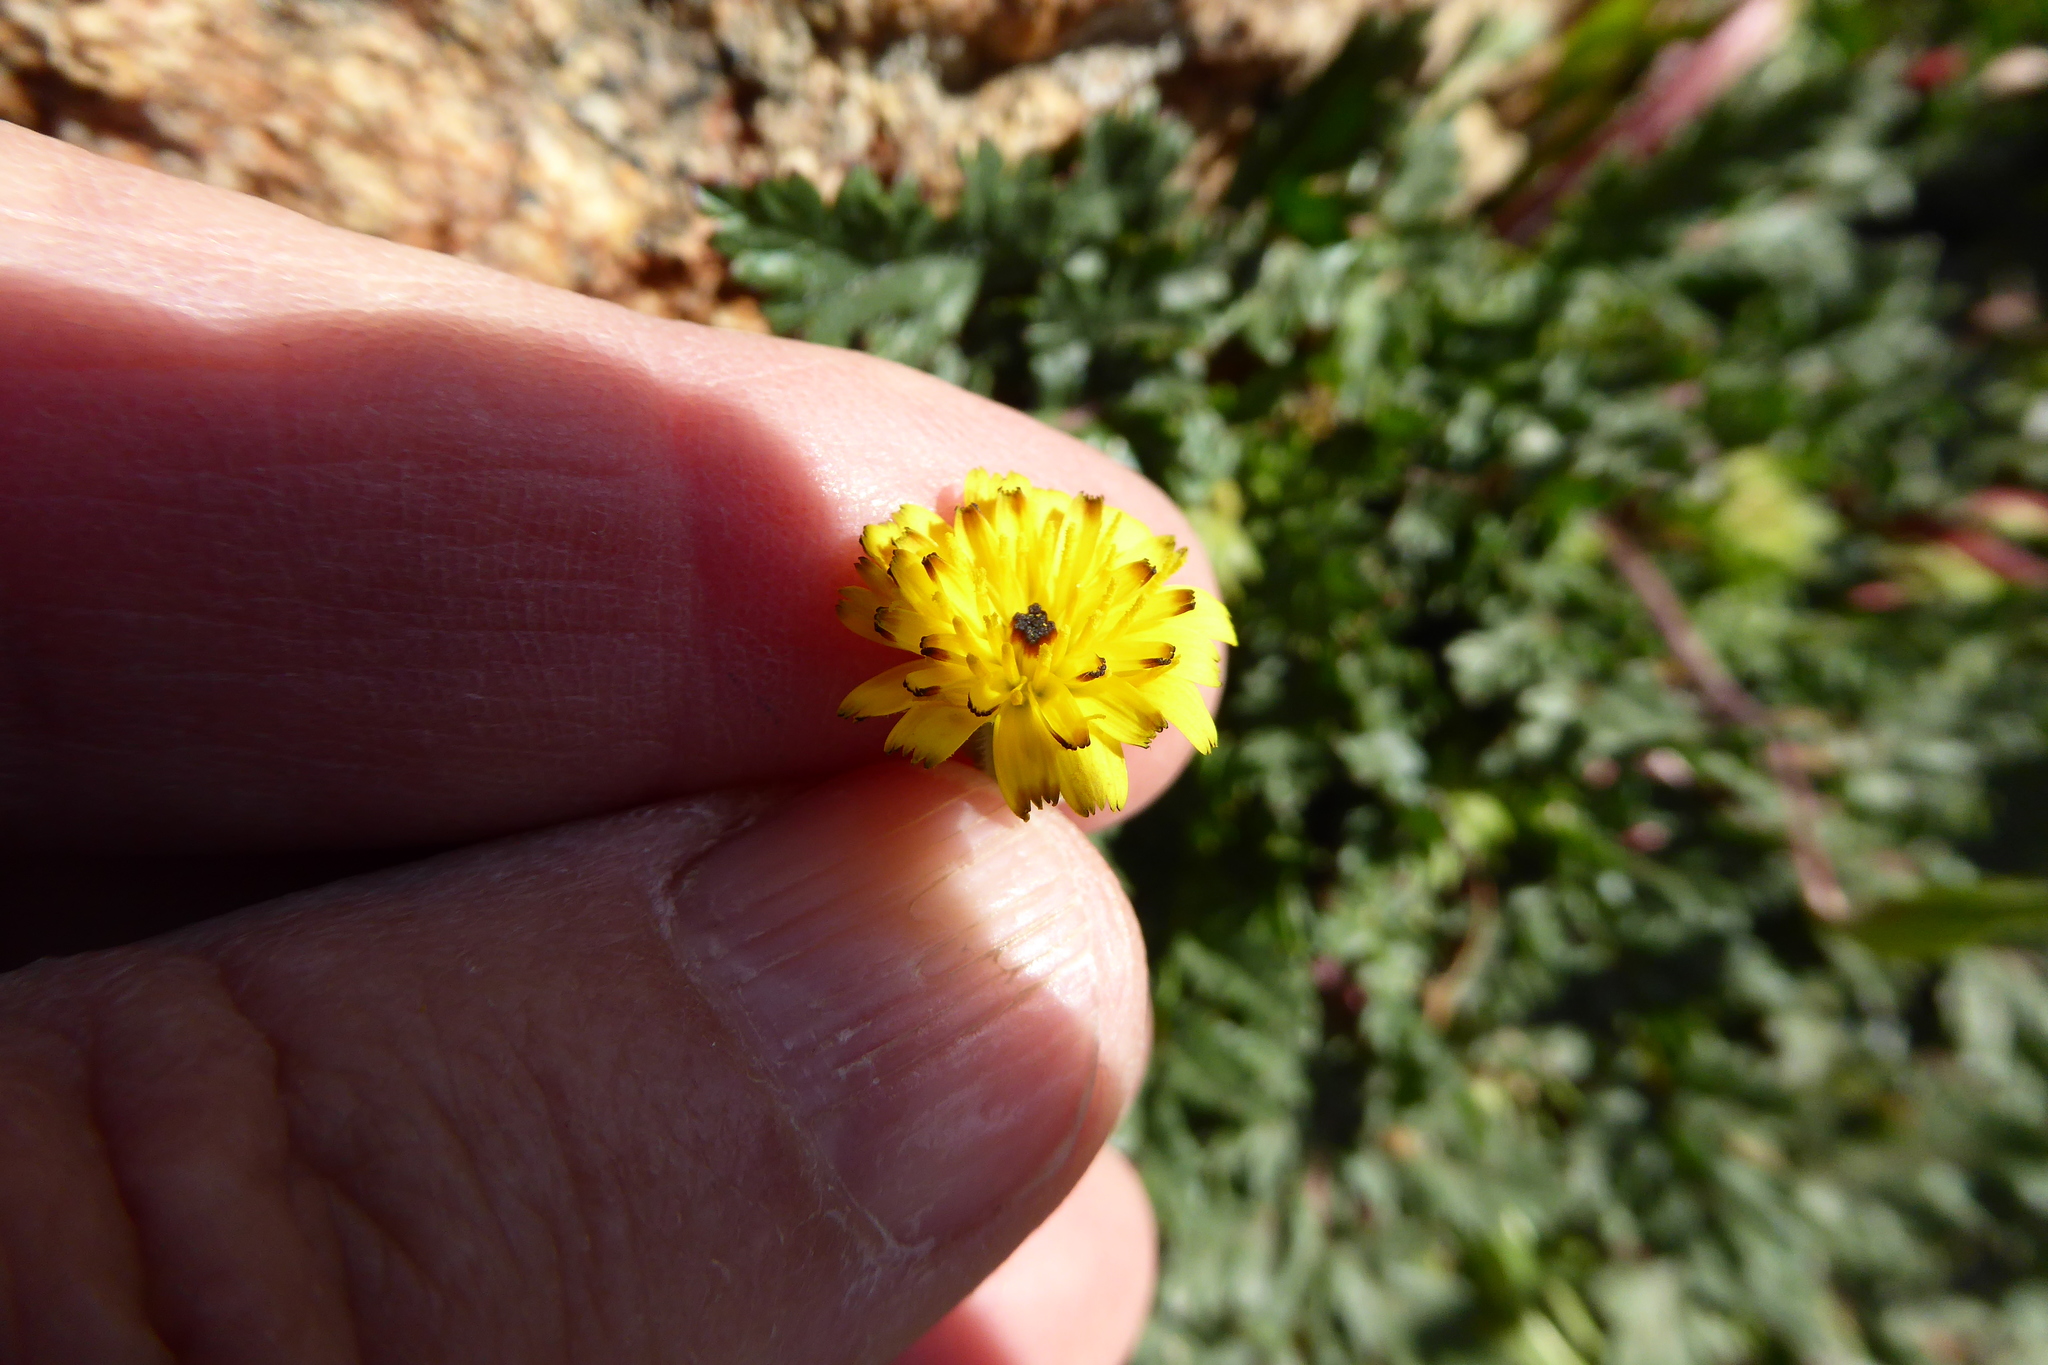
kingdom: Plantae
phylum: Tracheophyta
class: Magnoliopsida
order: Asterales
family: Asteraceae
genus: Hedypnois
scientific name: Hedypnois rhagadioloides
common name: Cretan weed
